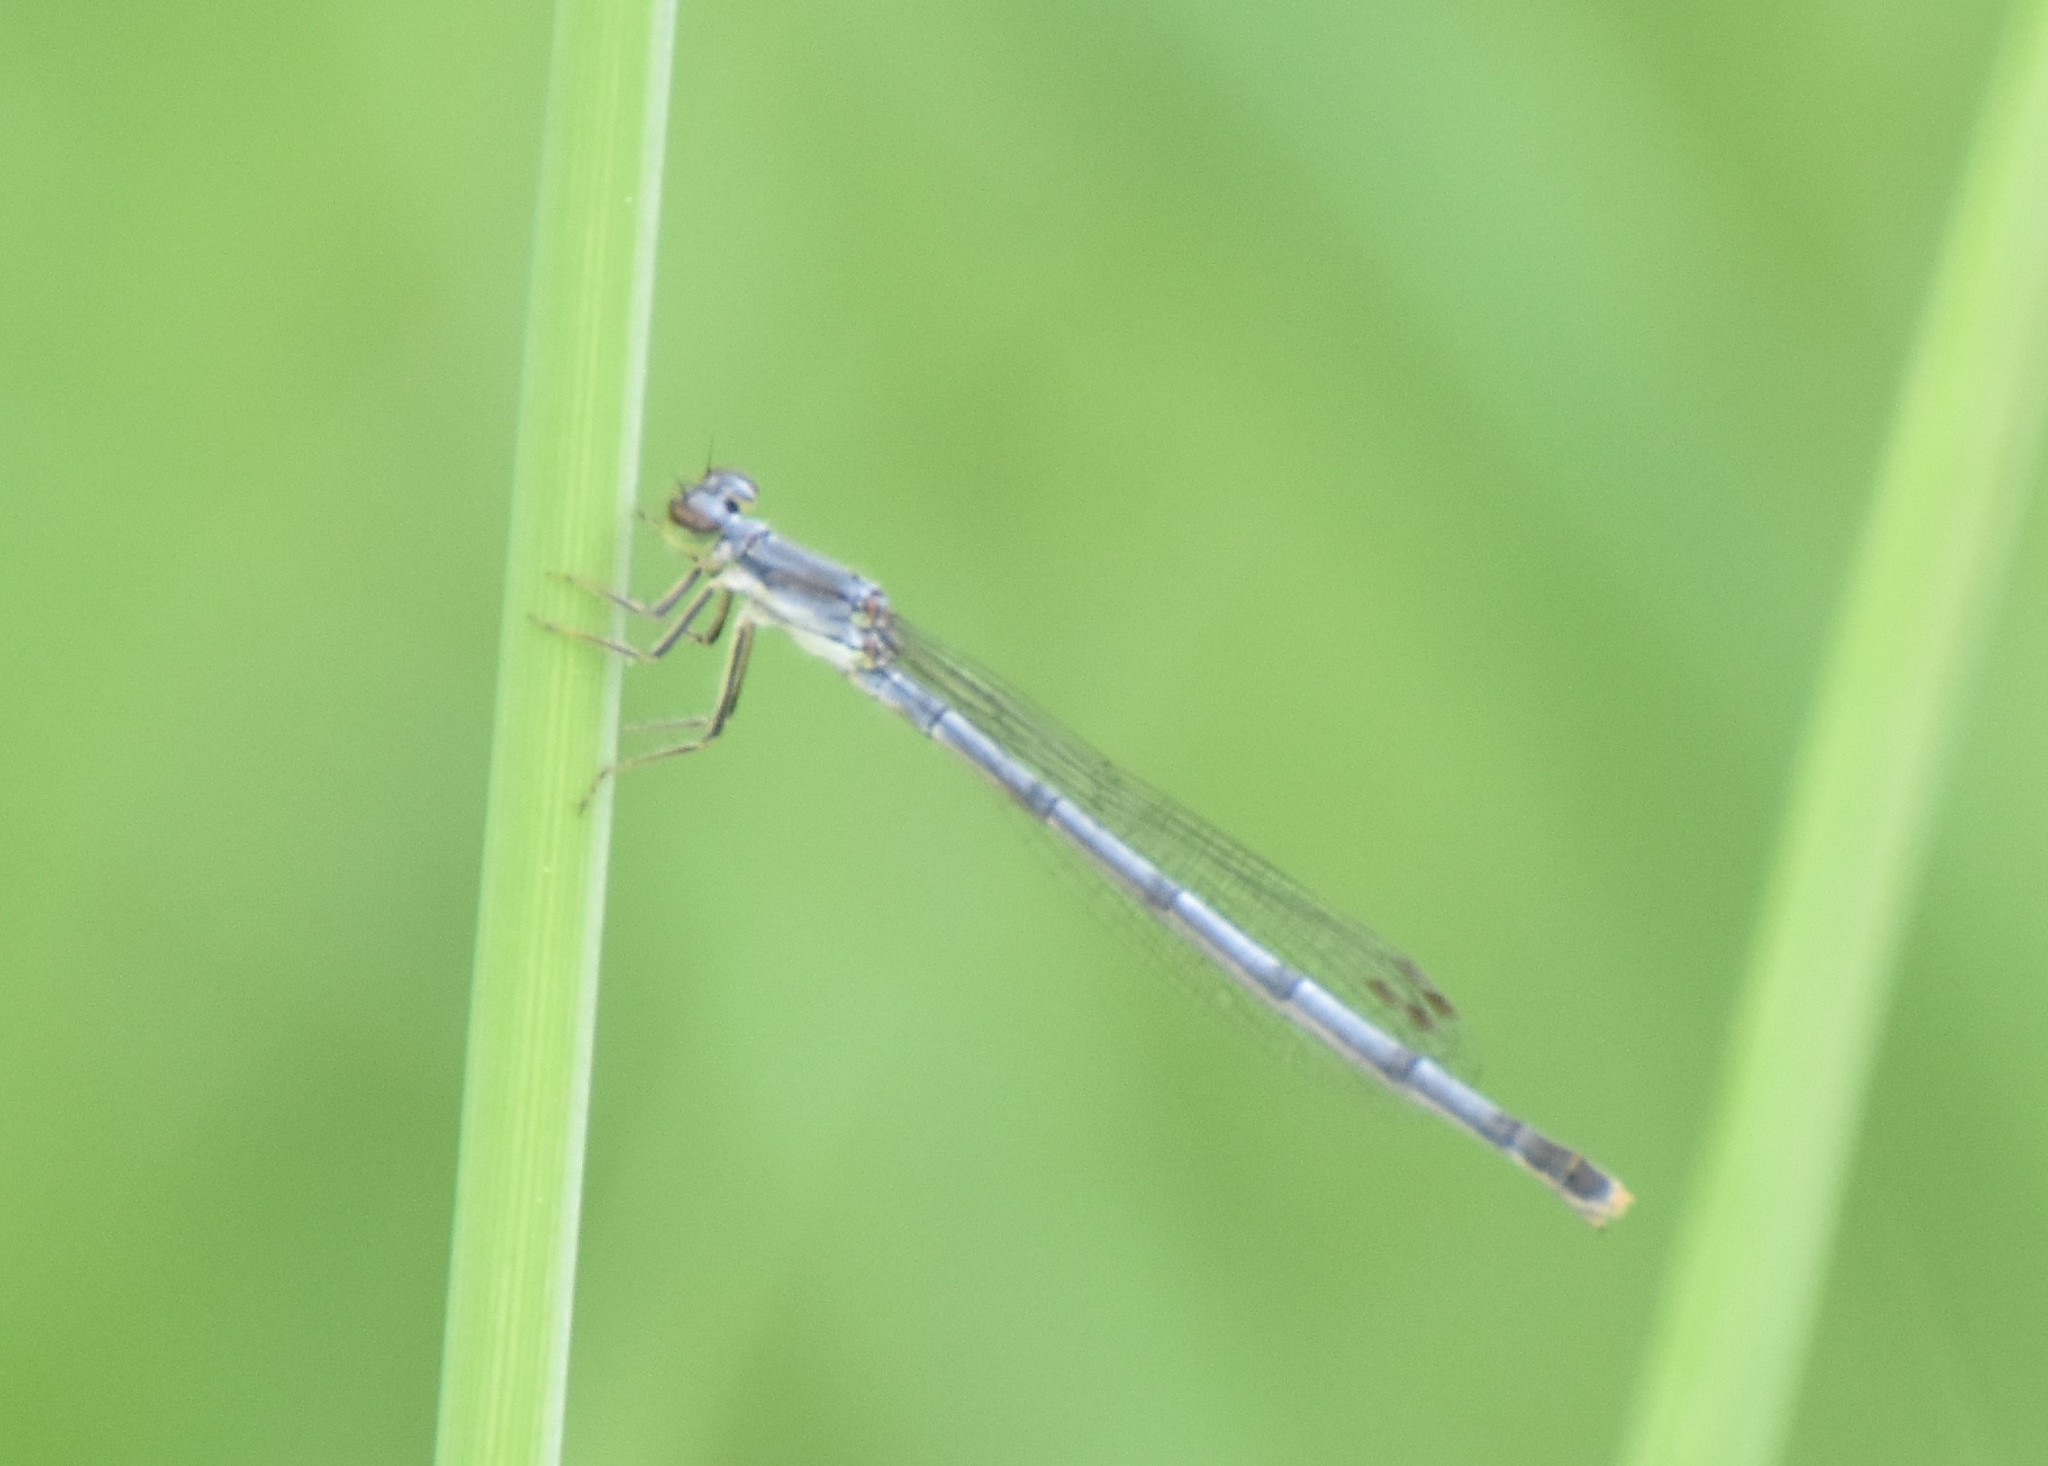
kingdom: Animalia
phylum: Arthropoda
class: Insecta
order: Odonata
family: Coenagrionidae
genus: Ischnura
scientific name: Ischnura posita
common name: Fragile forktail
